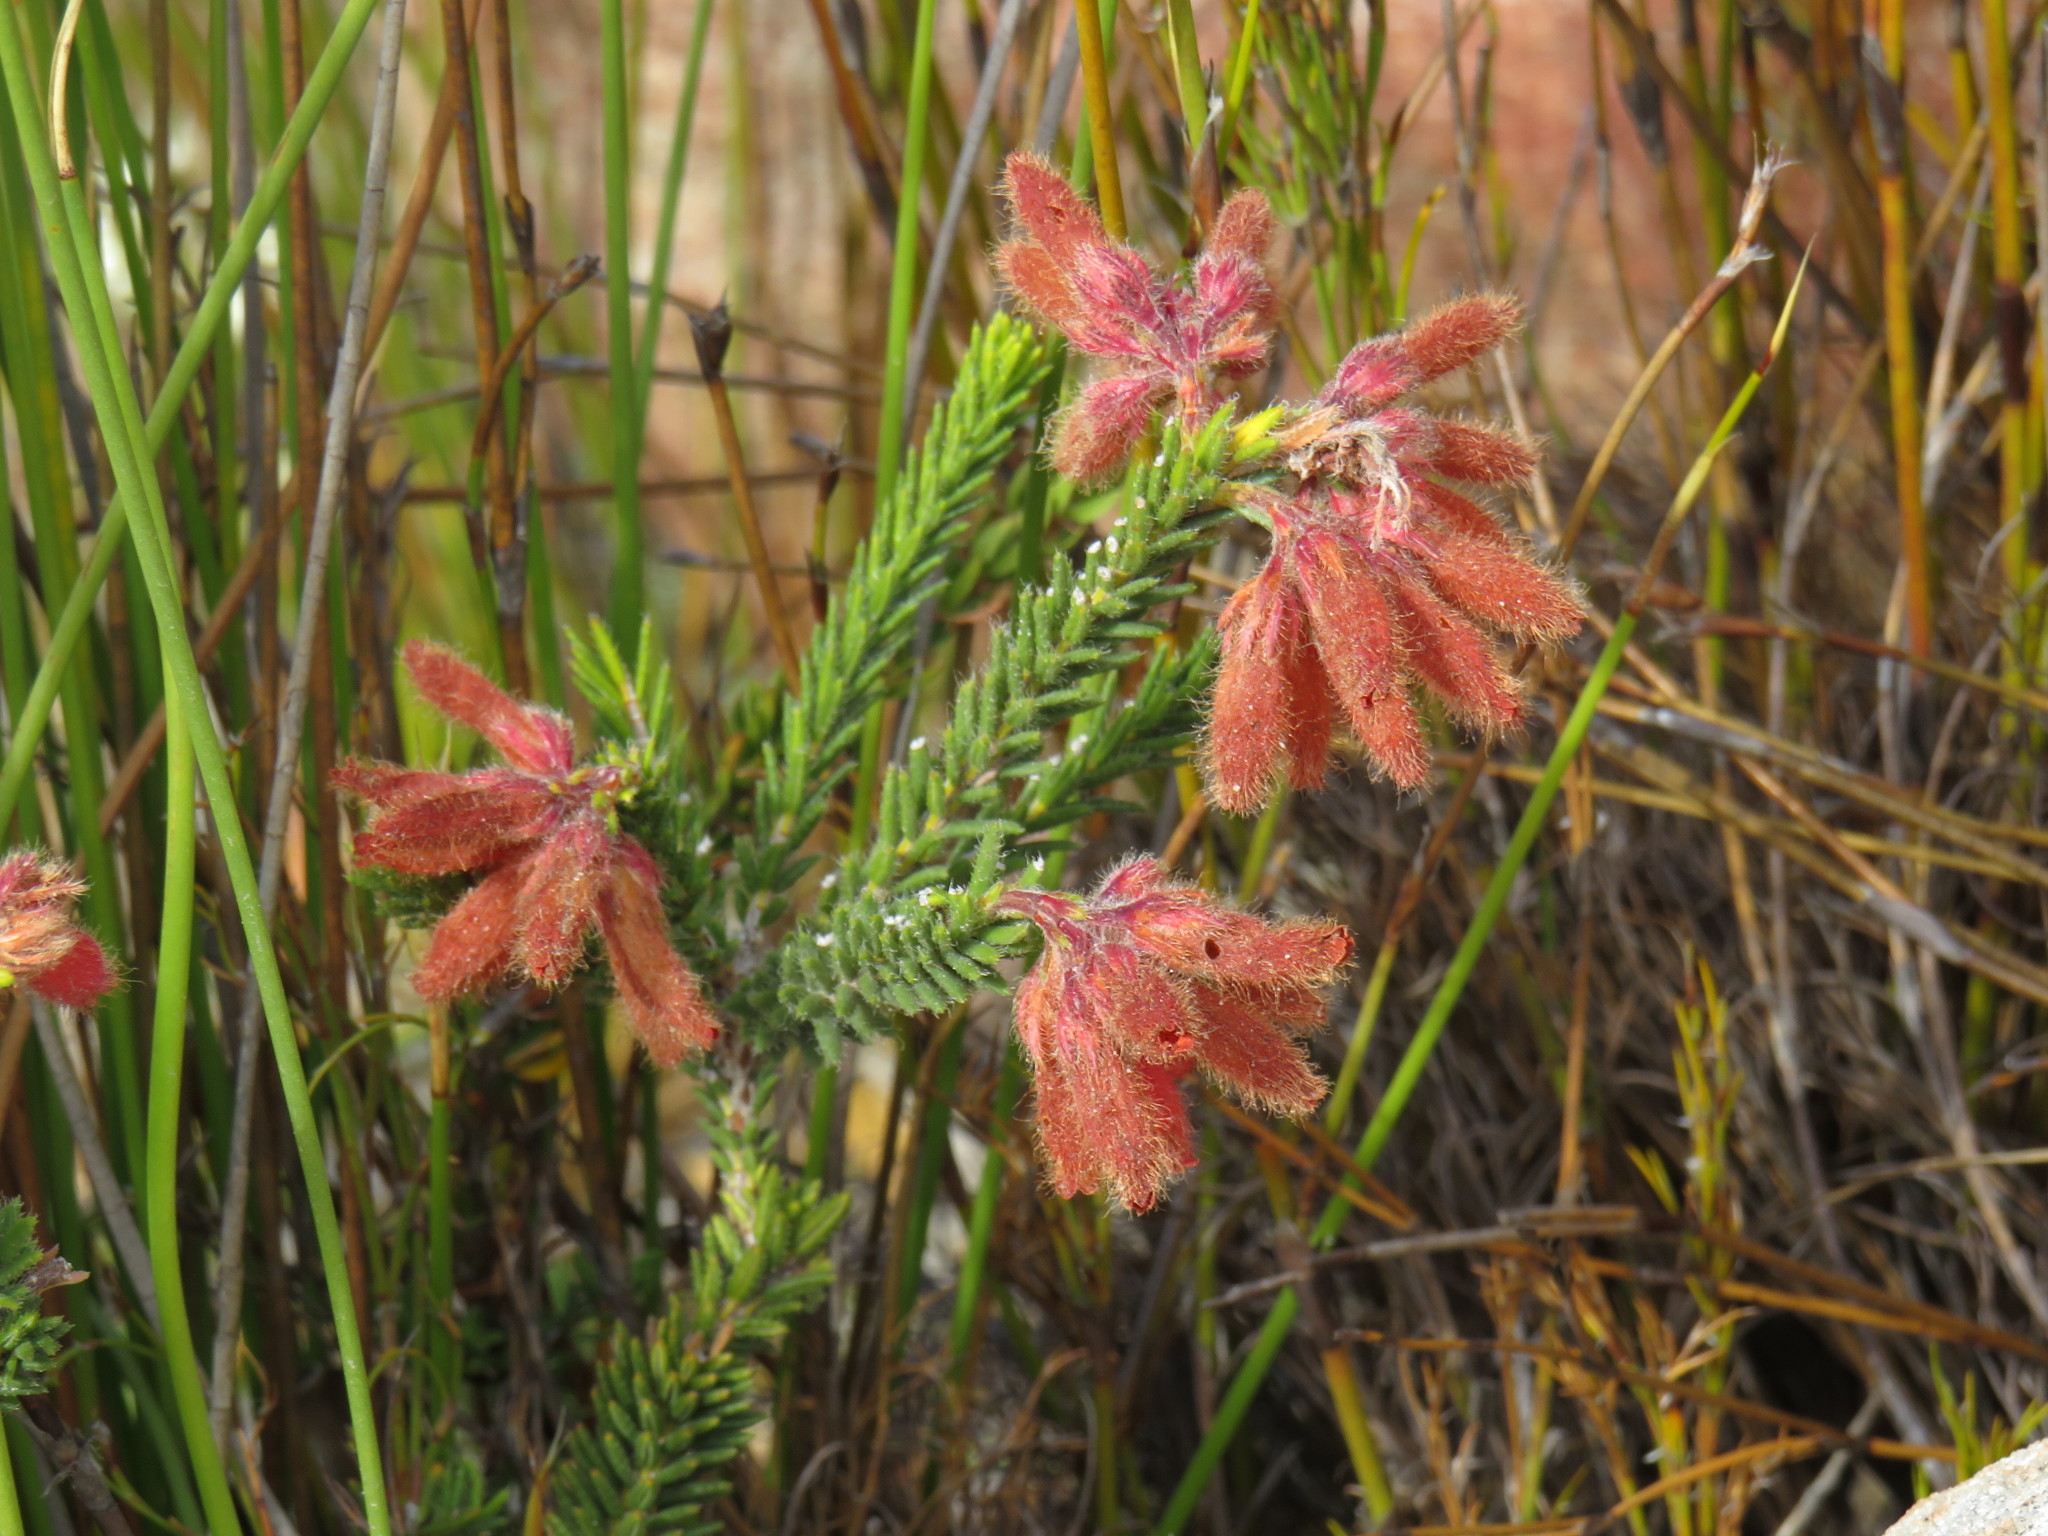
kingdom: Plantae
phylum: Tracheophyta
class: Magnoliopsida
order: Ericales
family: Ericaceae
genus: Erica
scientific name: Erica cerinthoides
